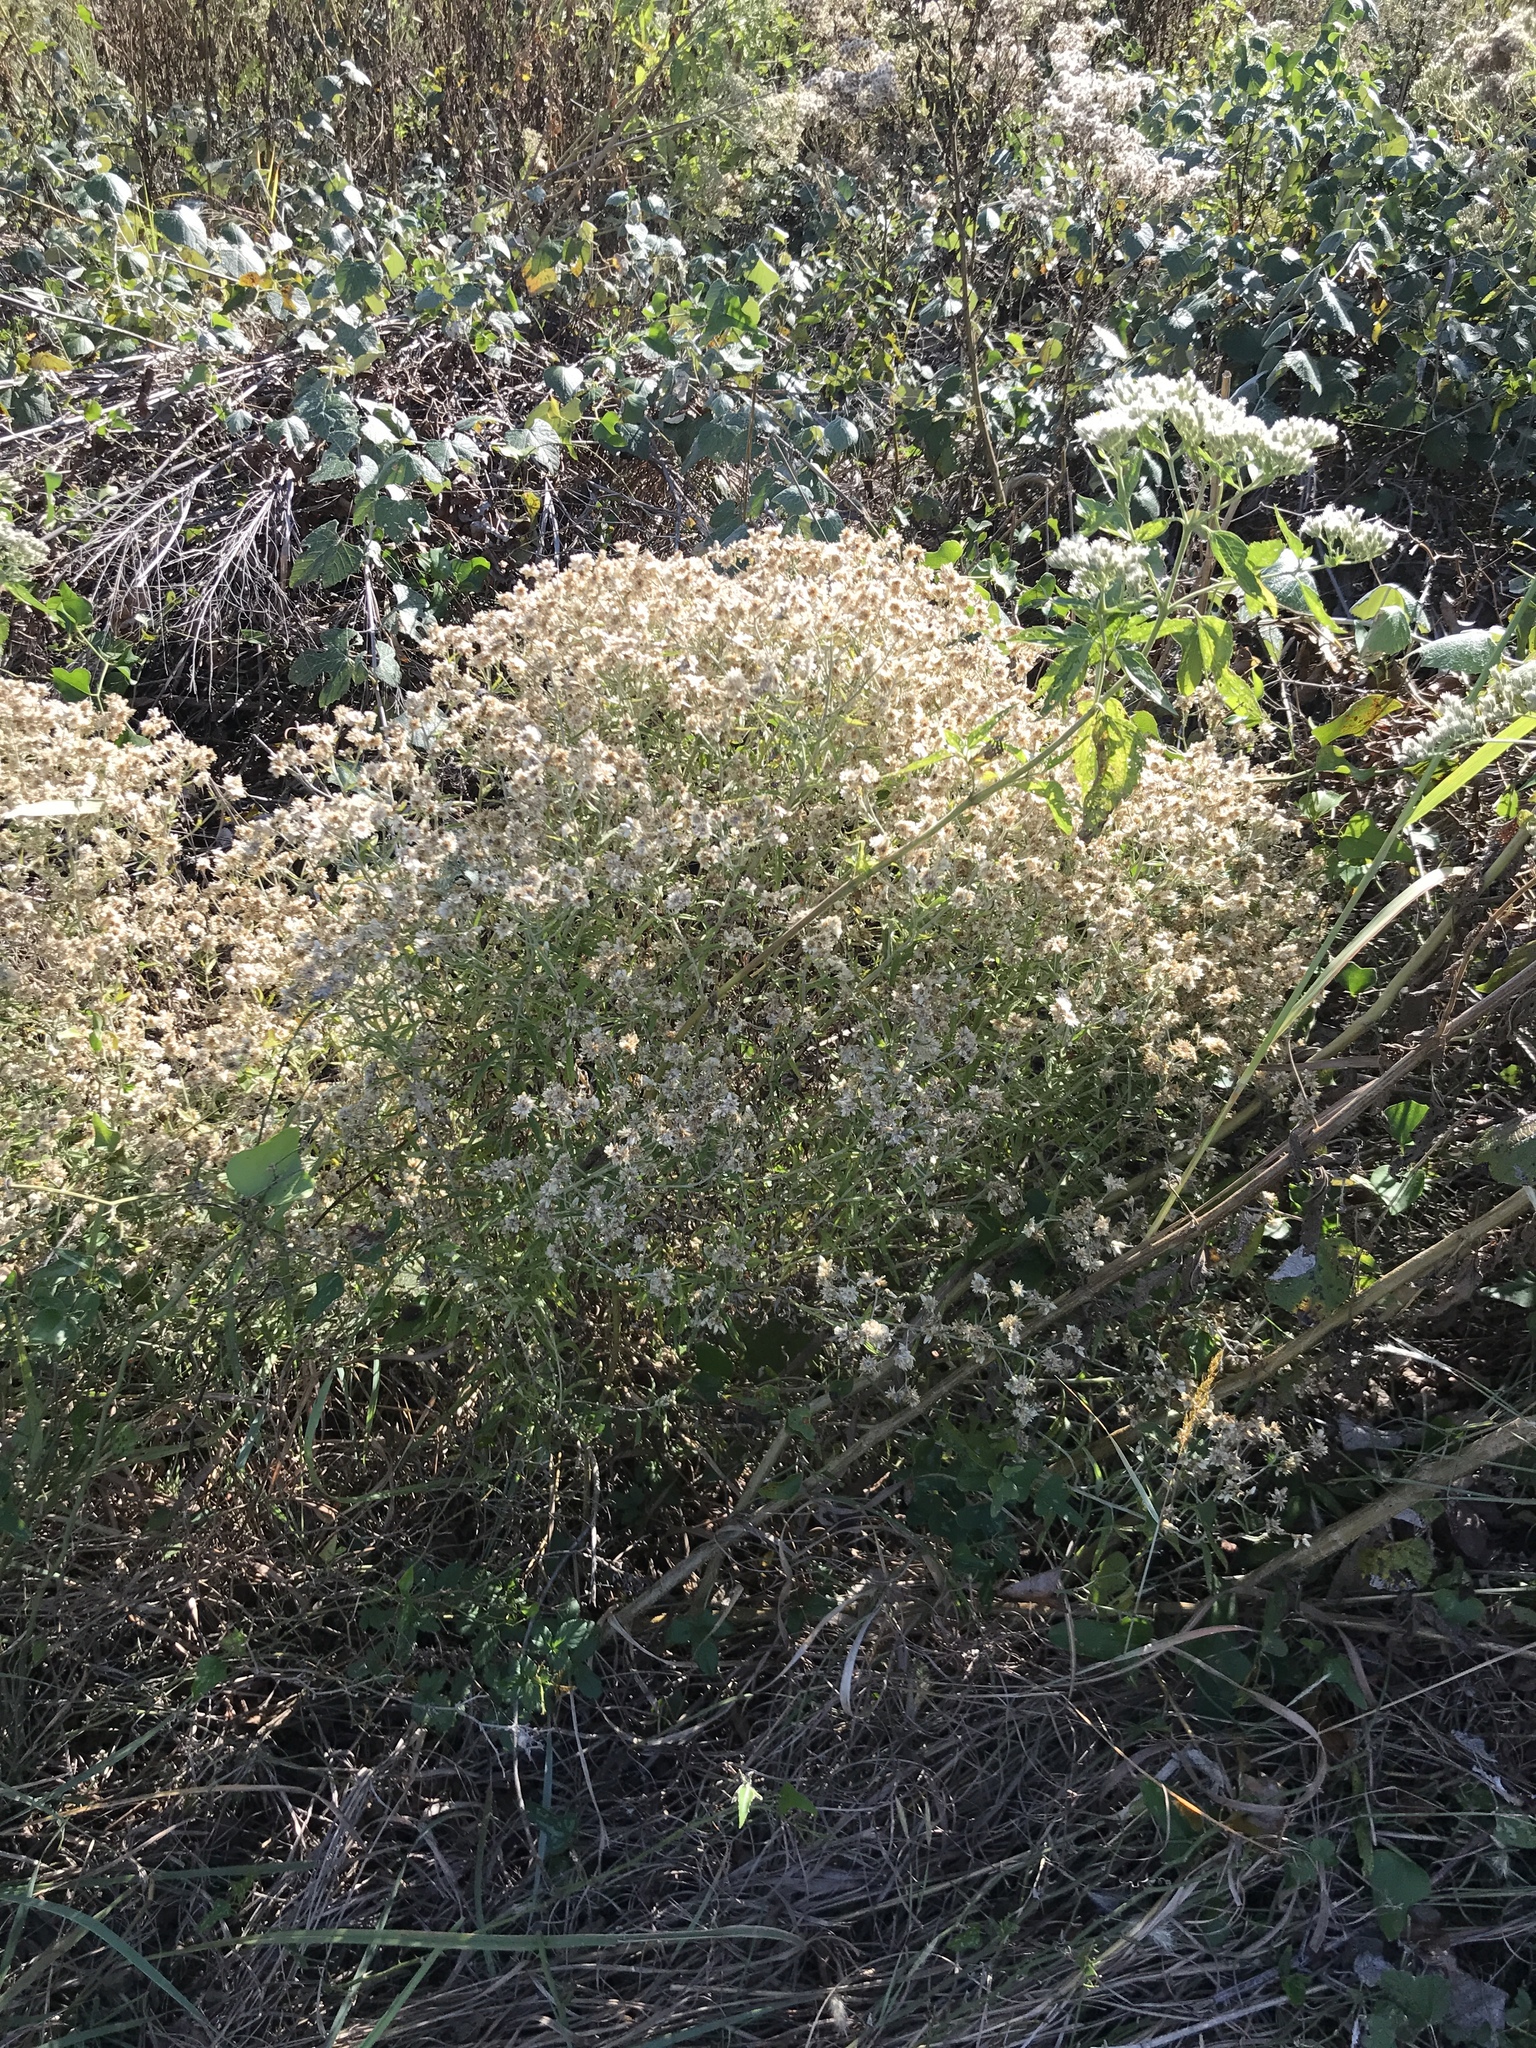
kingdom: Plantae
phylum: Tracheophyta
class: Magnoliopsida
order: Asterales
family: Asteraceae
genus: Pseudognaphalium
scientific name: Pseudognaphalium obtusifolium
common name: Eastern rabbit-tobacco
